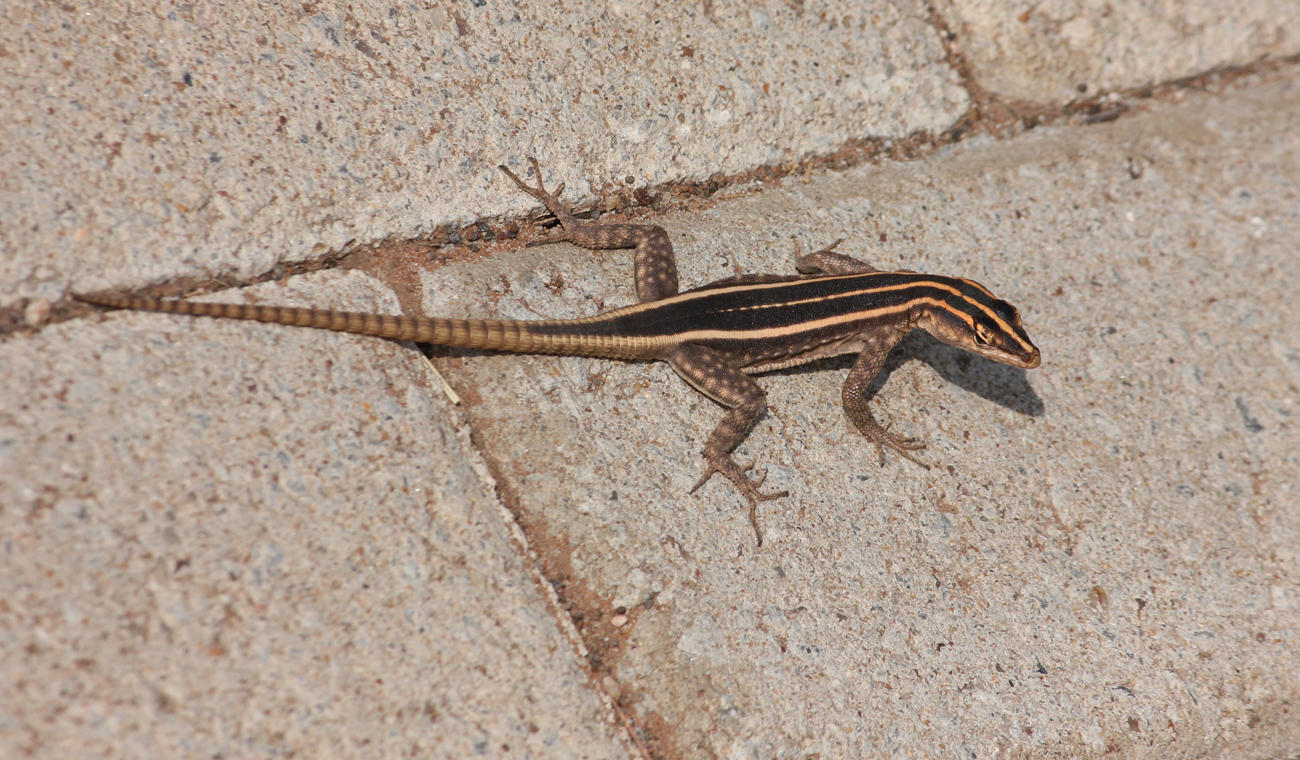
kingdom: Animalia
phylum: Chordata
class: Squamata
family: Cordylidae
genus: Platysaurus
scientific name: Platysaurus intermedius
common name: Common flat lizard
